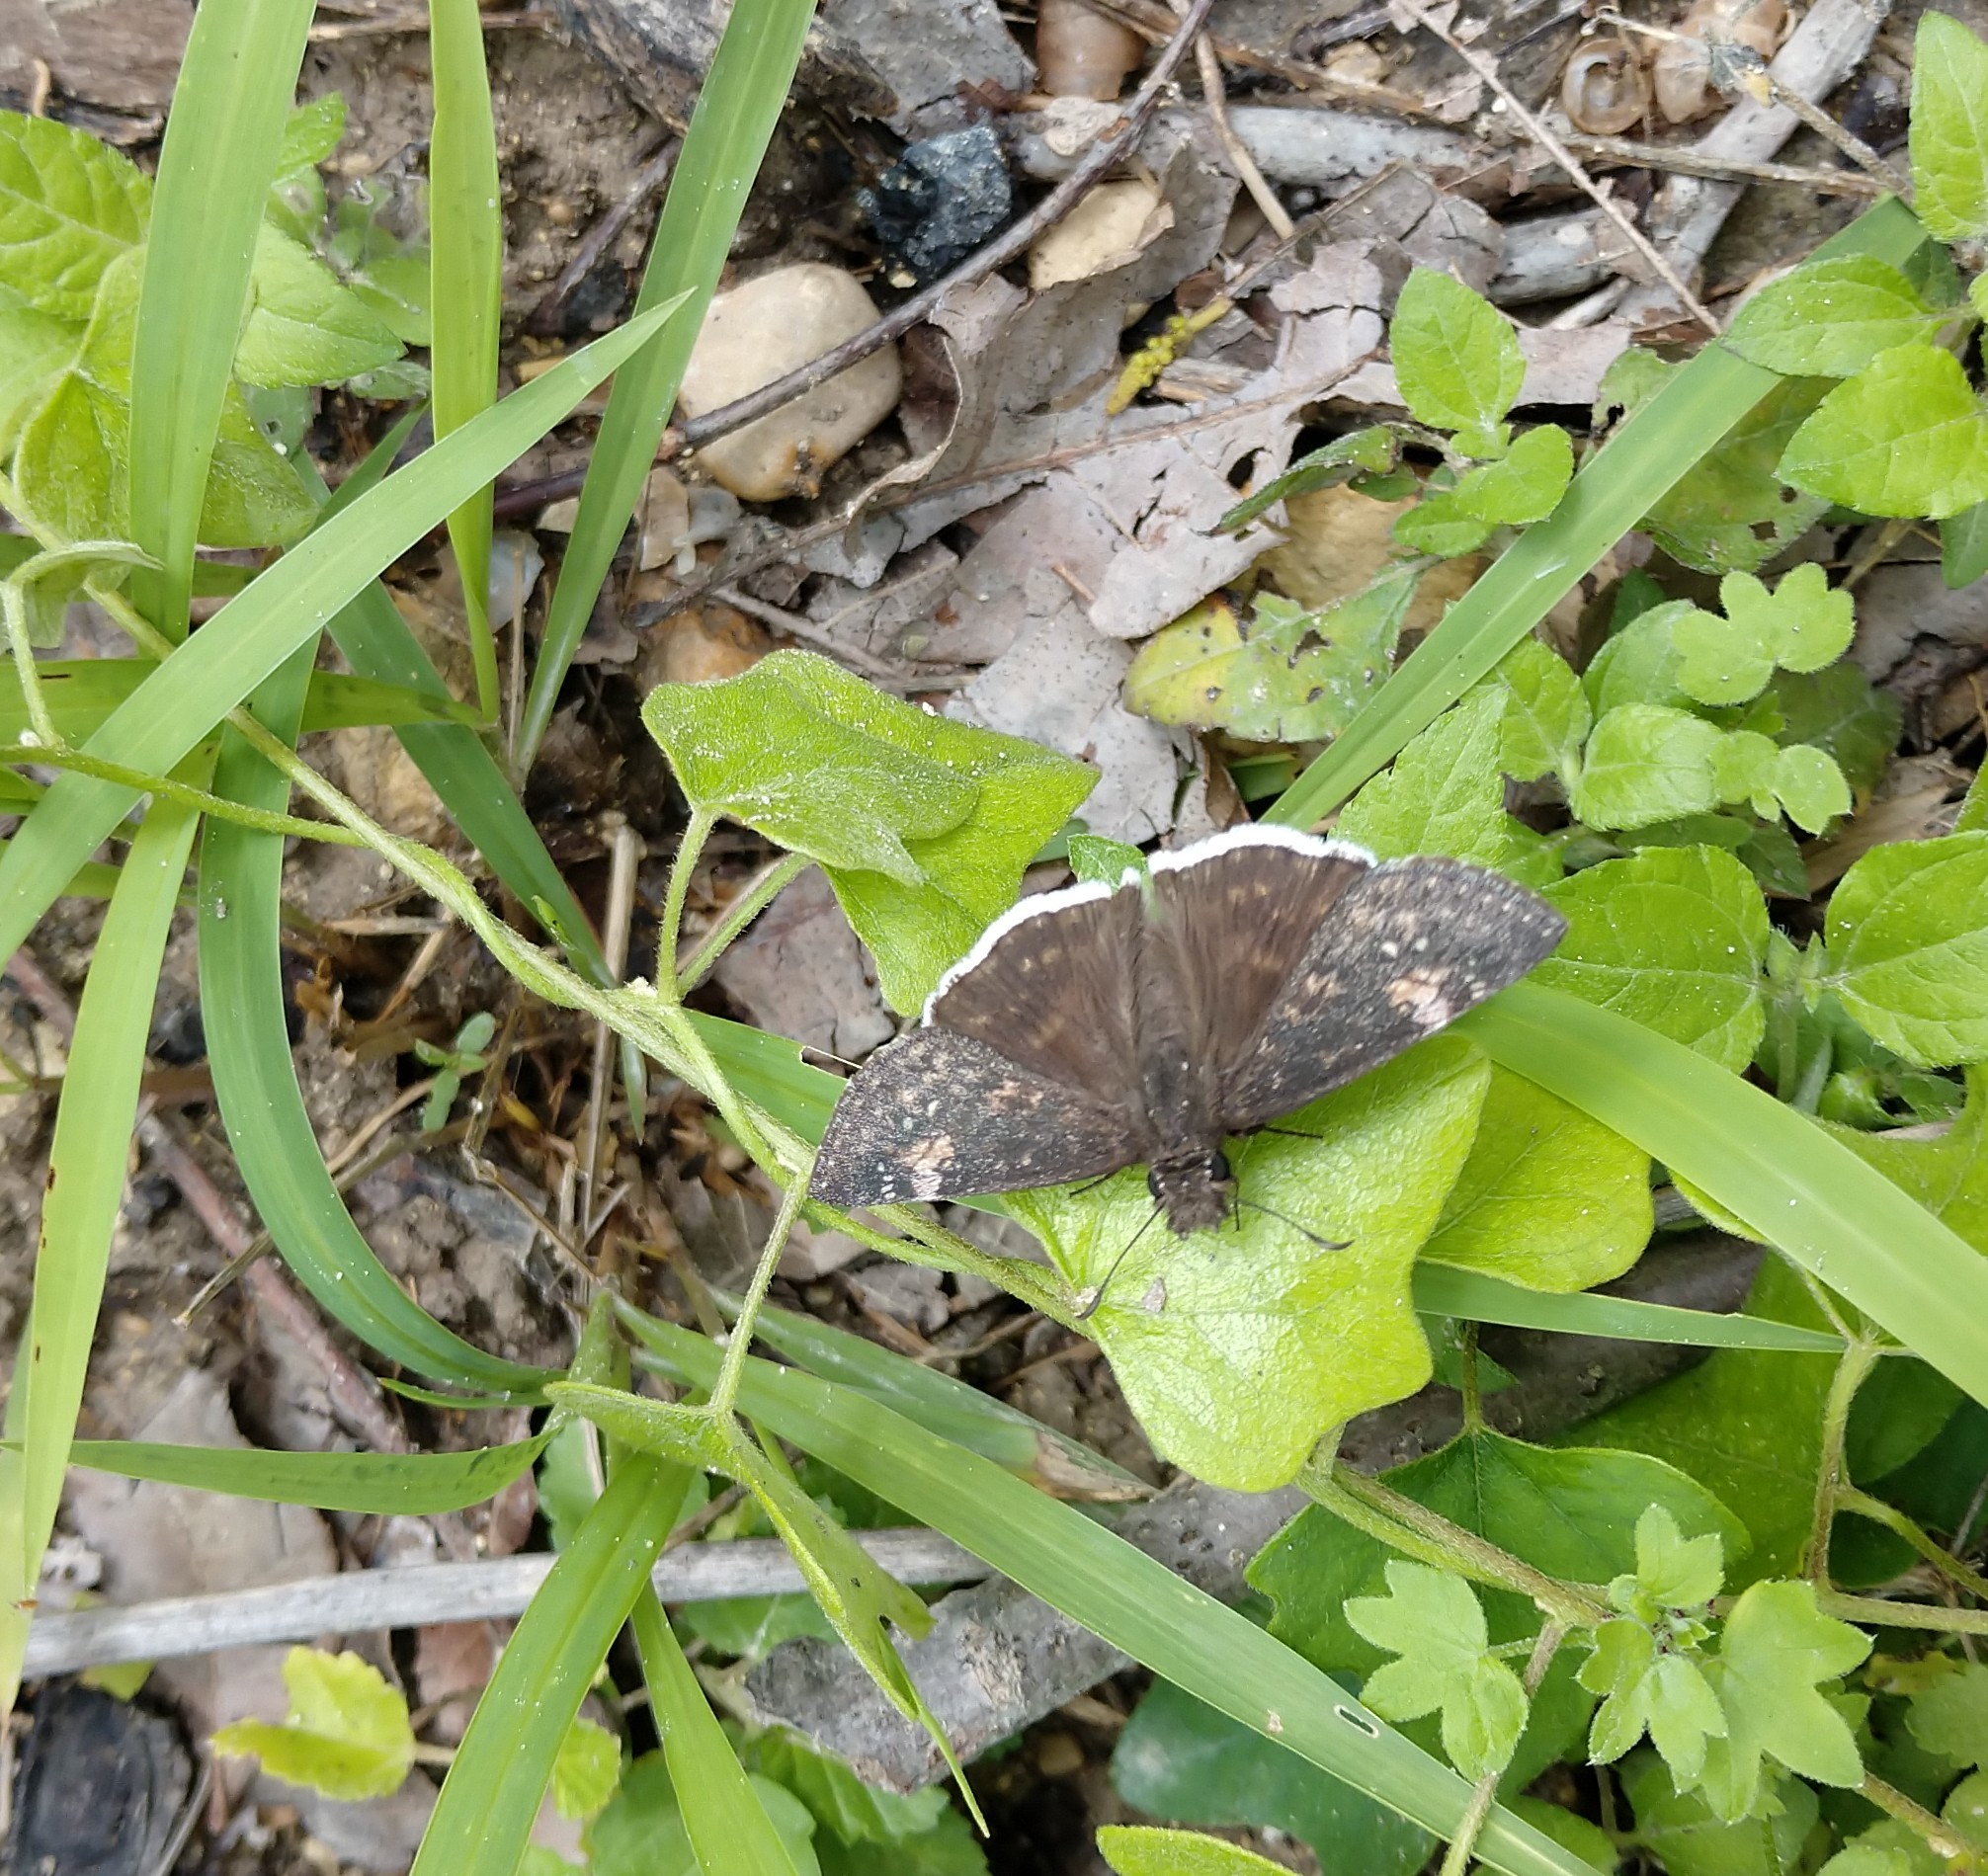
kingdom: Animalia
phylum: Arthropoda
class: Insecta
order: Lepidoptera
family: Hesperiidae
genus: Erynnis
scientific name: Erynnis funeralis
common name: Funereal duskywing
